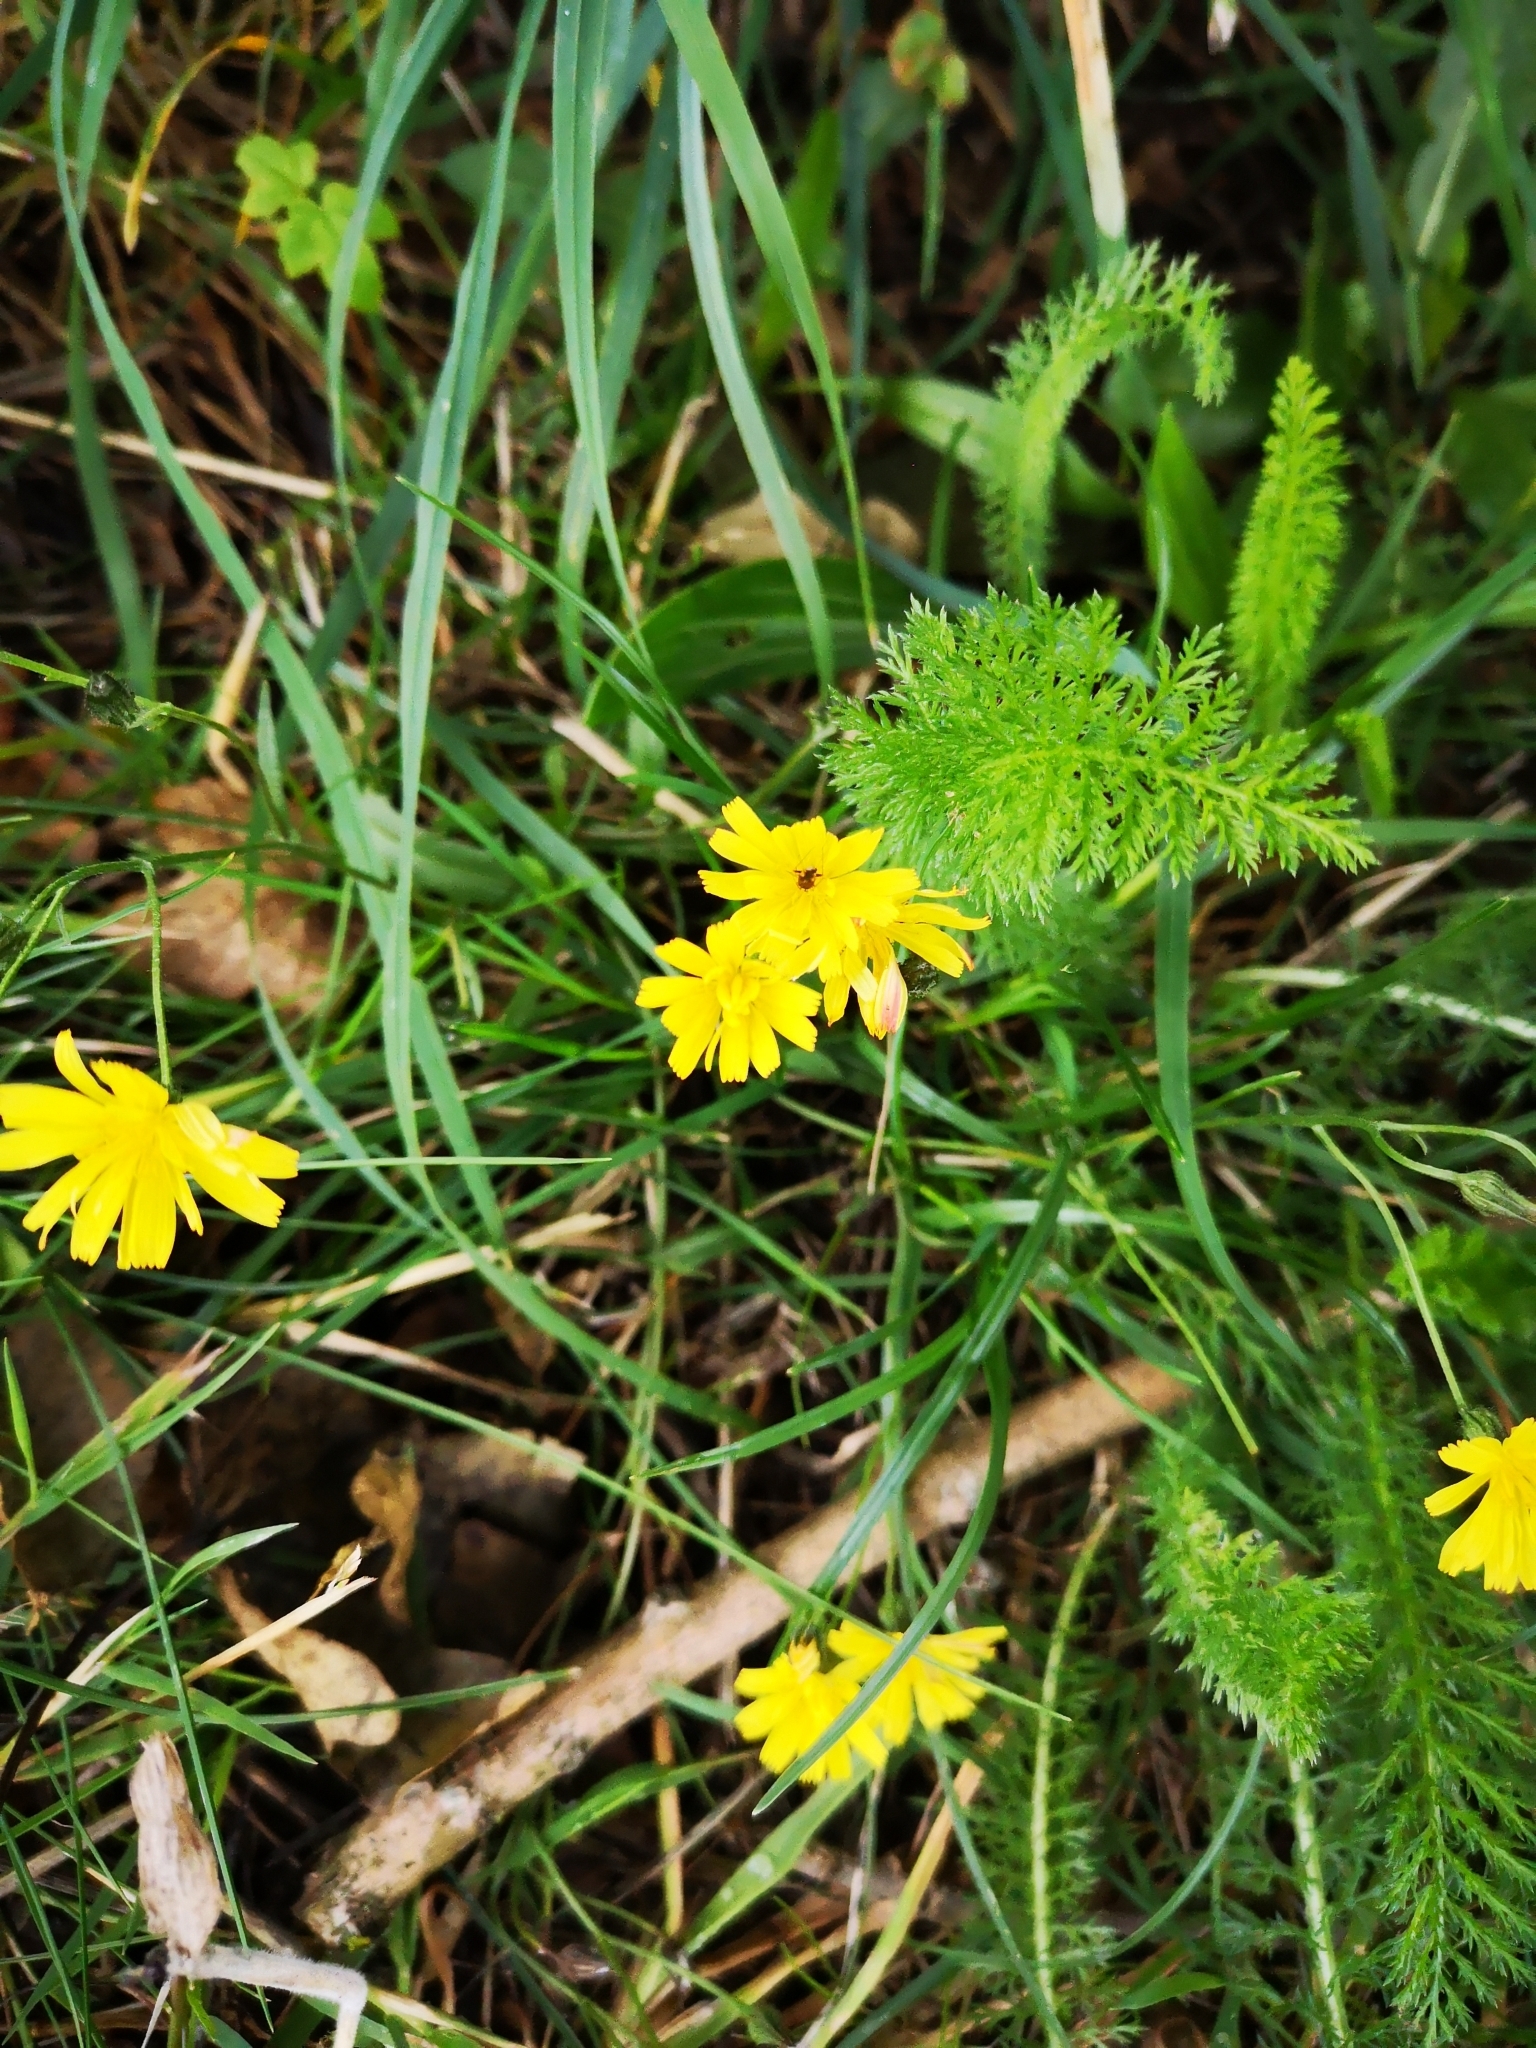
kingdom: Plantae
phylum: Tracheophyta
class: Magnoliopsida
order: Asterales
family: Asteraceae
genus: Lapsana
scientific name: Lapsana communis
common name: Nipplewort
